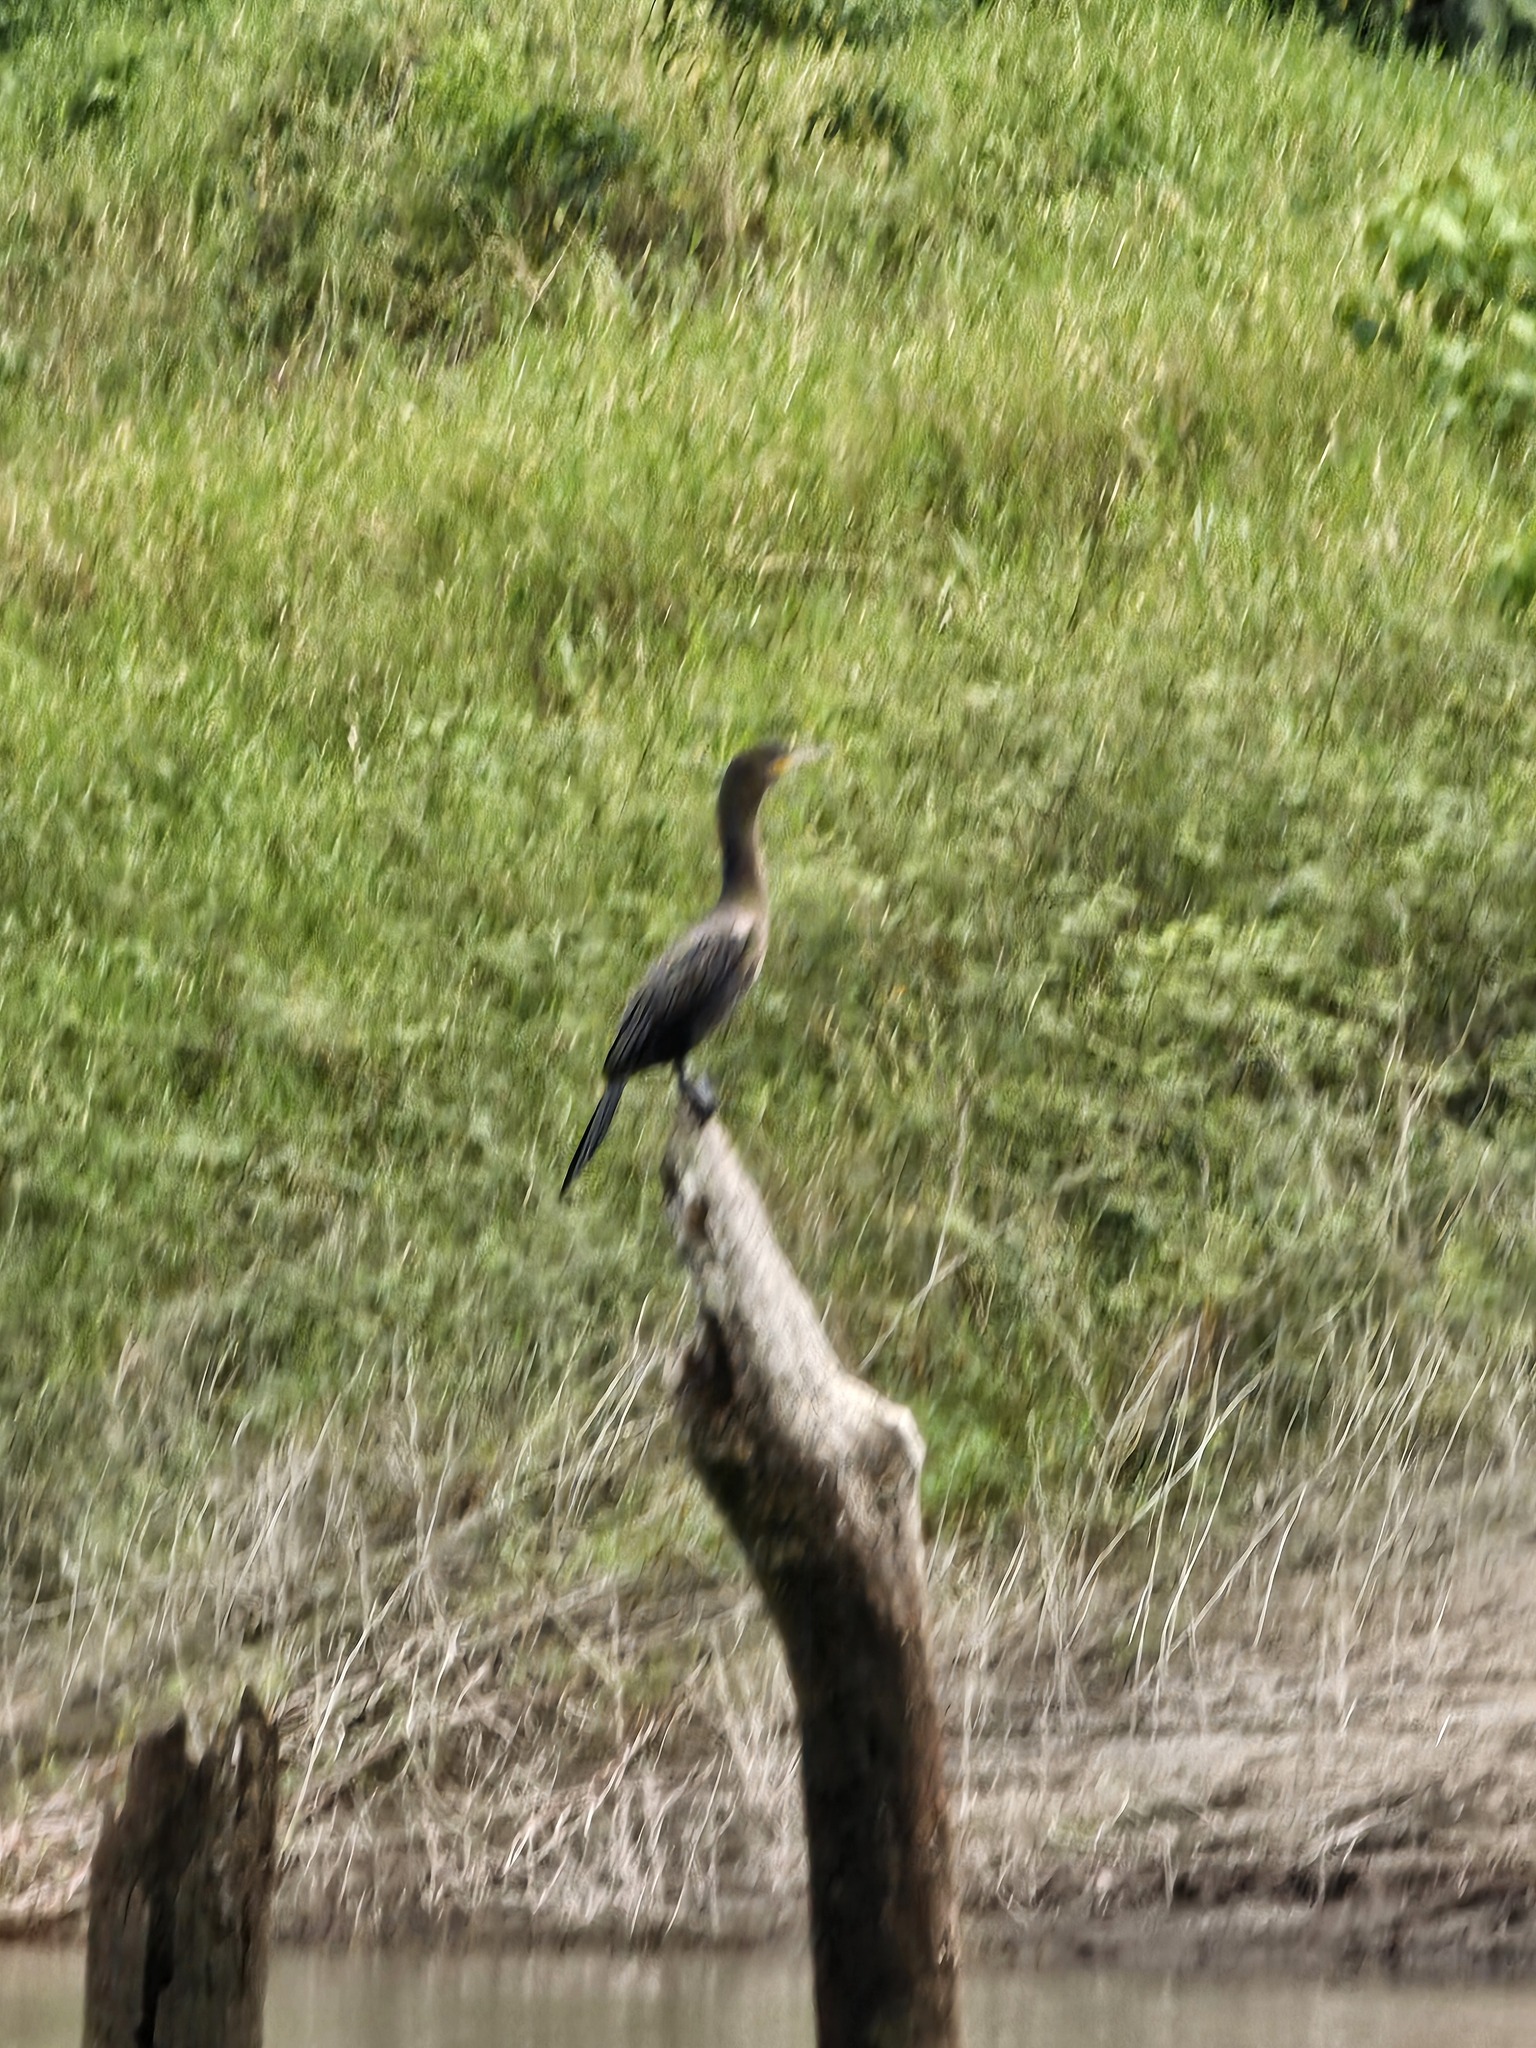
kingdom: Animalia
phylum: Chordata
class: Aves
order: Suliformes
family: Phalacrocoracidae
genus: Phalacrocorax
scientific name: Phalacrocorax brasilianus
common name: Neotropic cormorant
